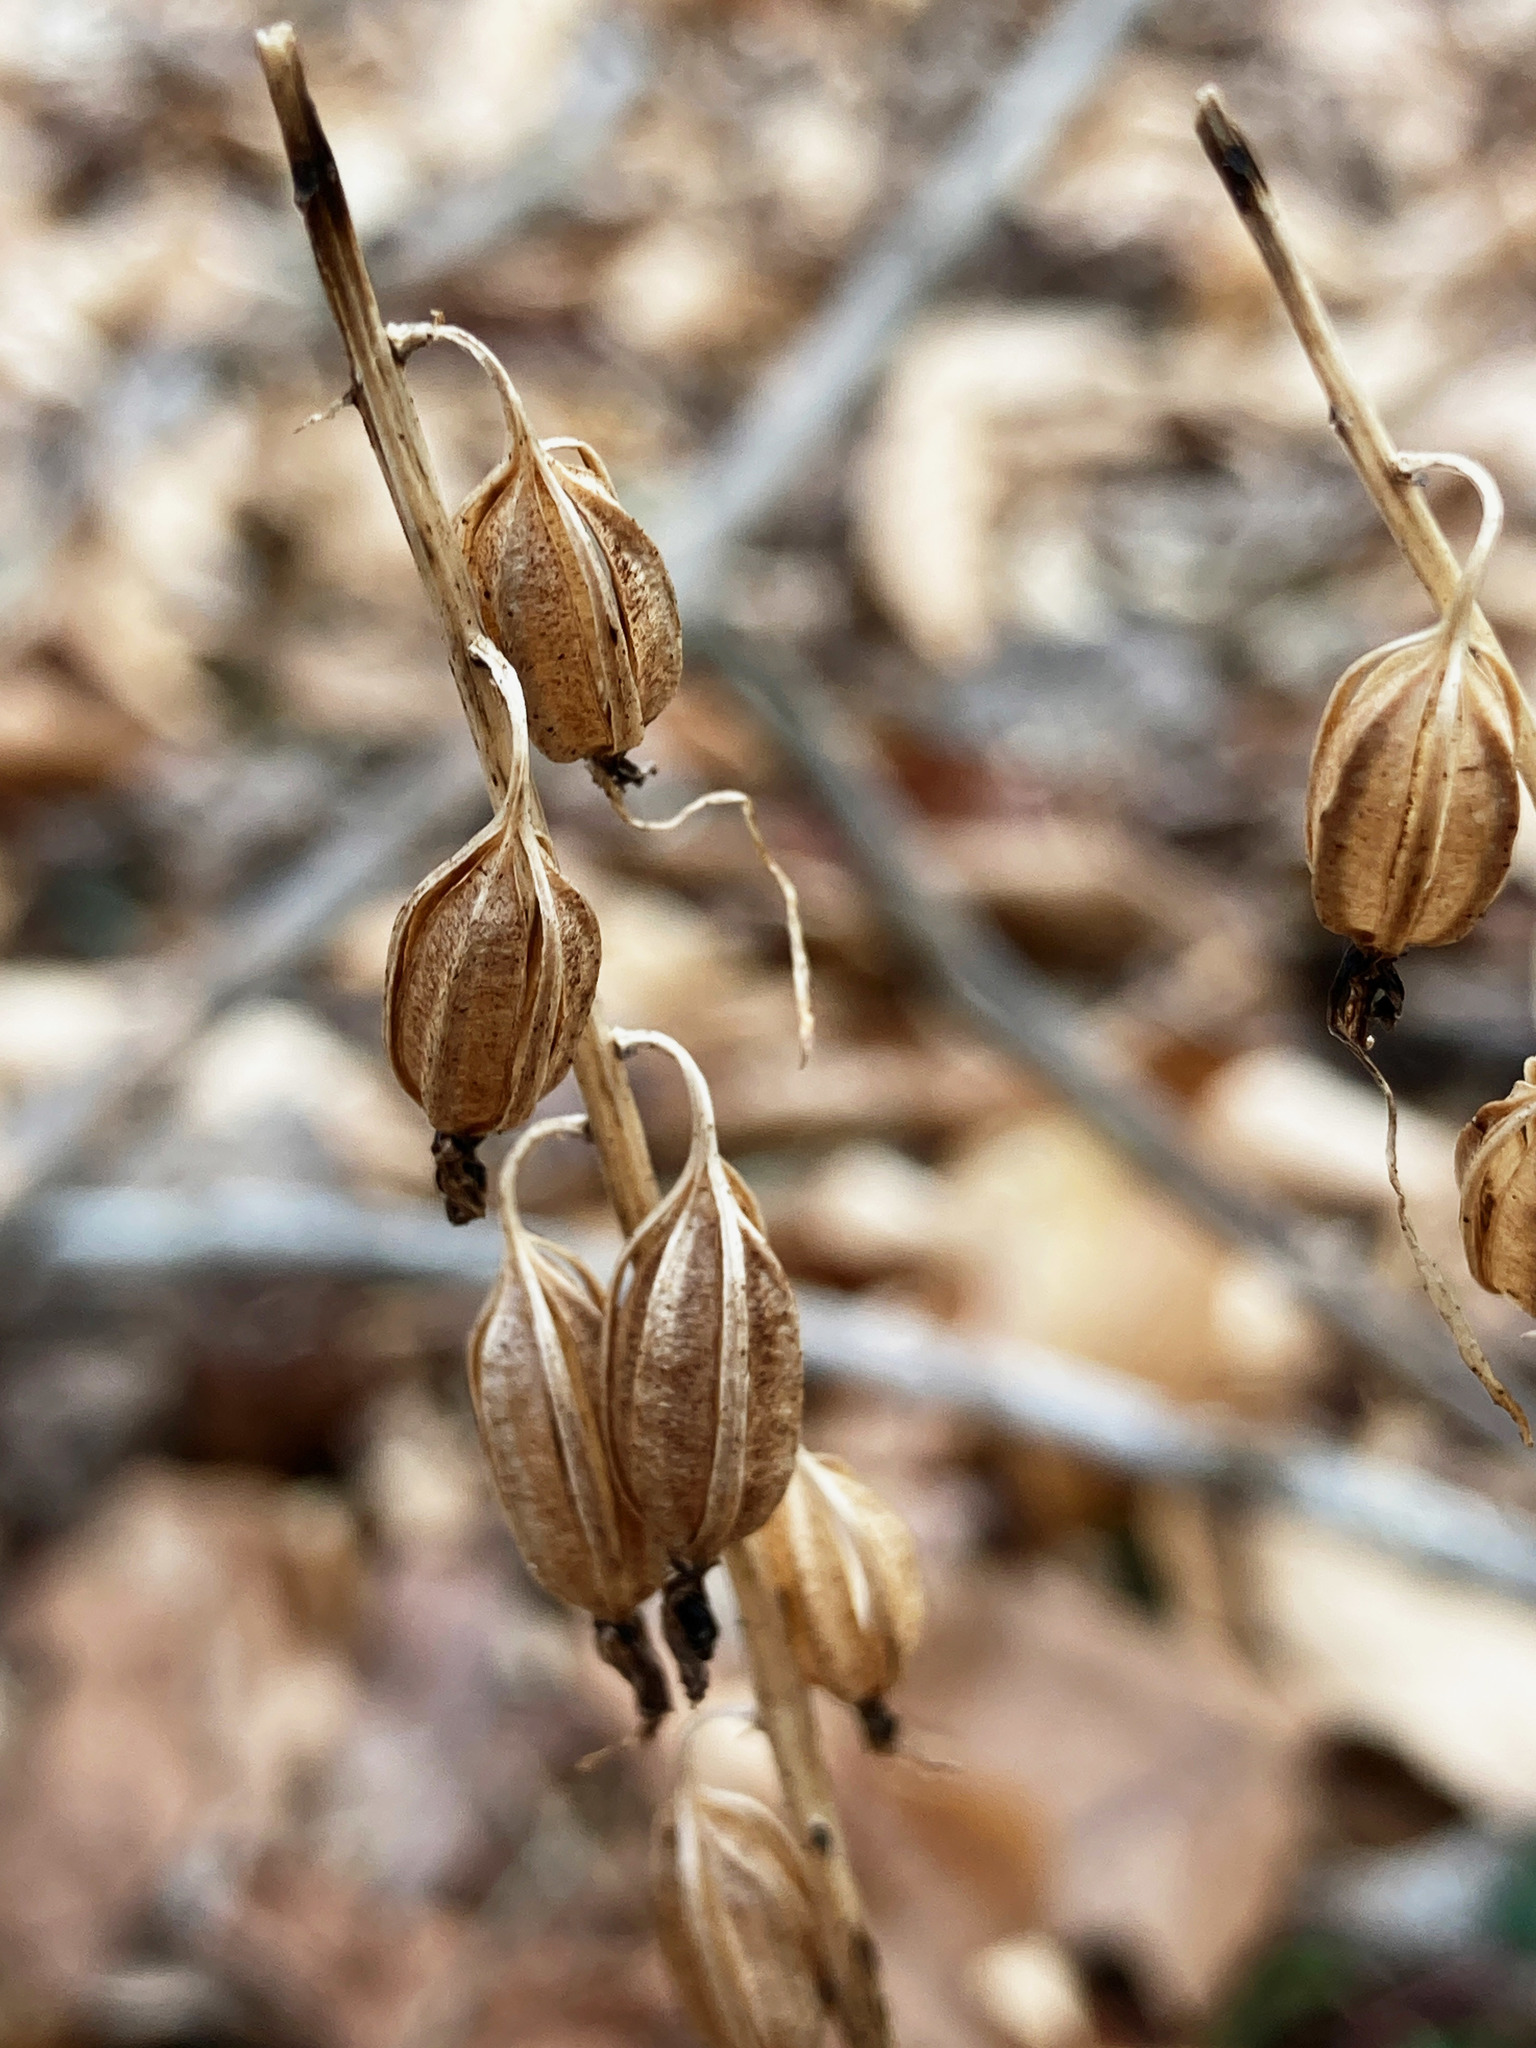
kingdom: Plantae
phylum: Tracheophyta
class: Liliopsida
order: Asparagales
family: Orchidaceae
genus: Tipularia
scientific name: Tipularia discolor
